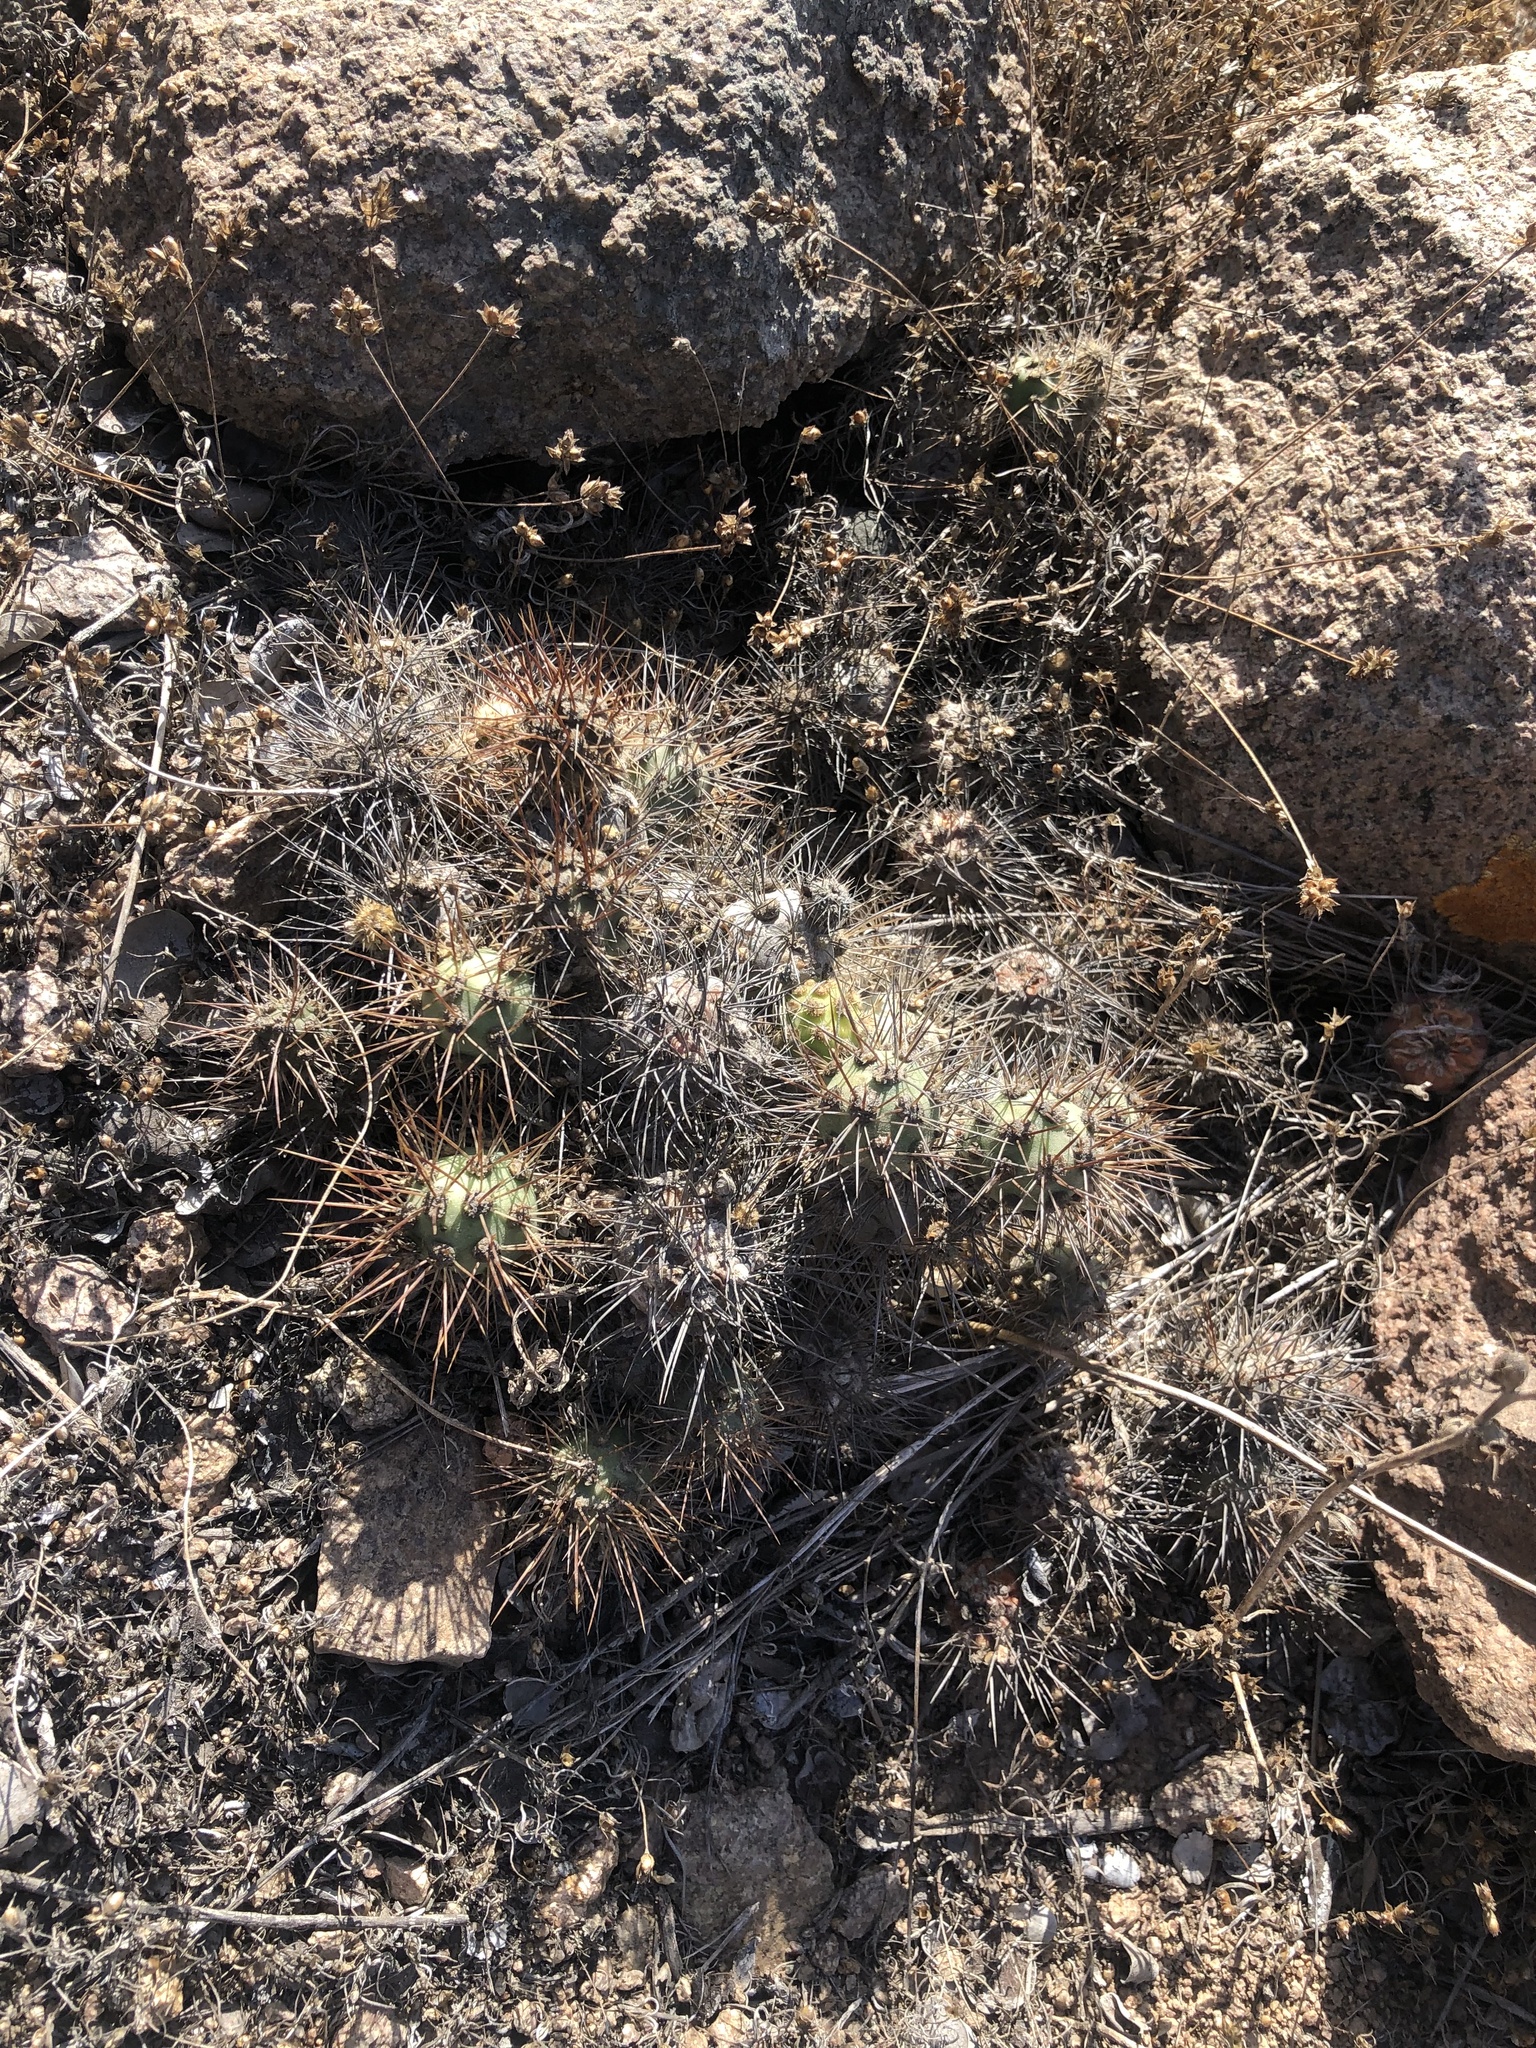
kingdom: Plantae
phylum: Tracheophyta
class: Magnoliopsida
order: Caryophyllales
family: Cactaceae
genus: Cumulopuntia
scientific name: Cumulopuntia leucophaea
